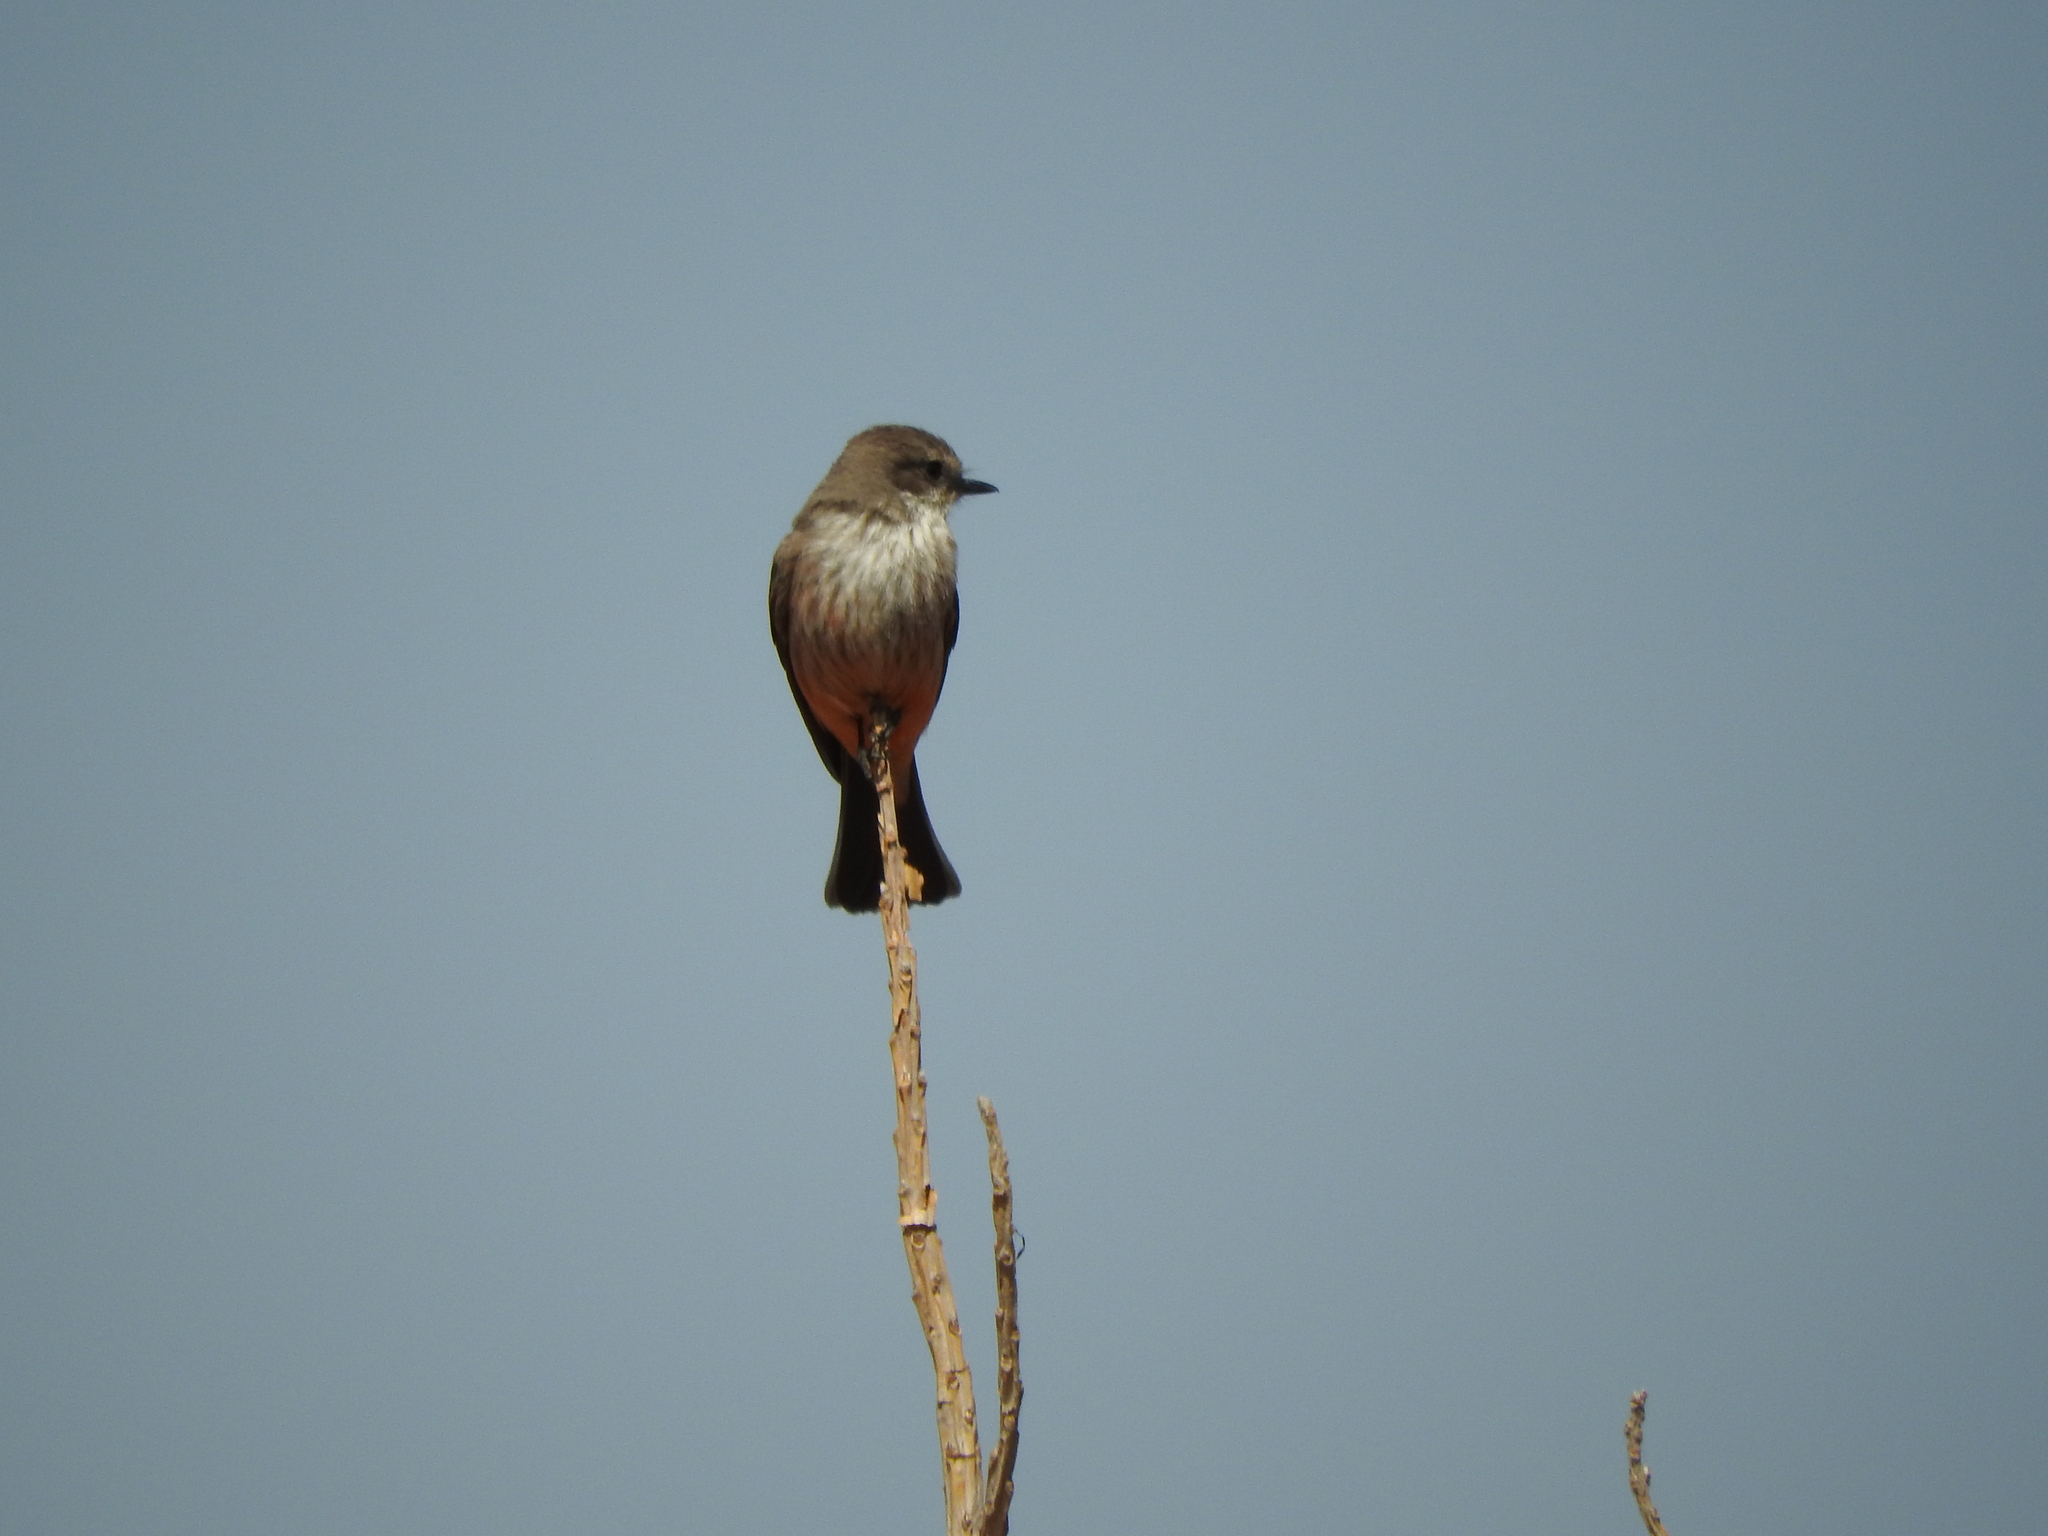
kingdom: Animalia
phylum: Chordata
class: Aves
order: Passeriformes
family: Tyrannidae
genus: Pyrocephalus
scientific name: Pyrocephalus rubinus
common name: Vermilion flycatcher
